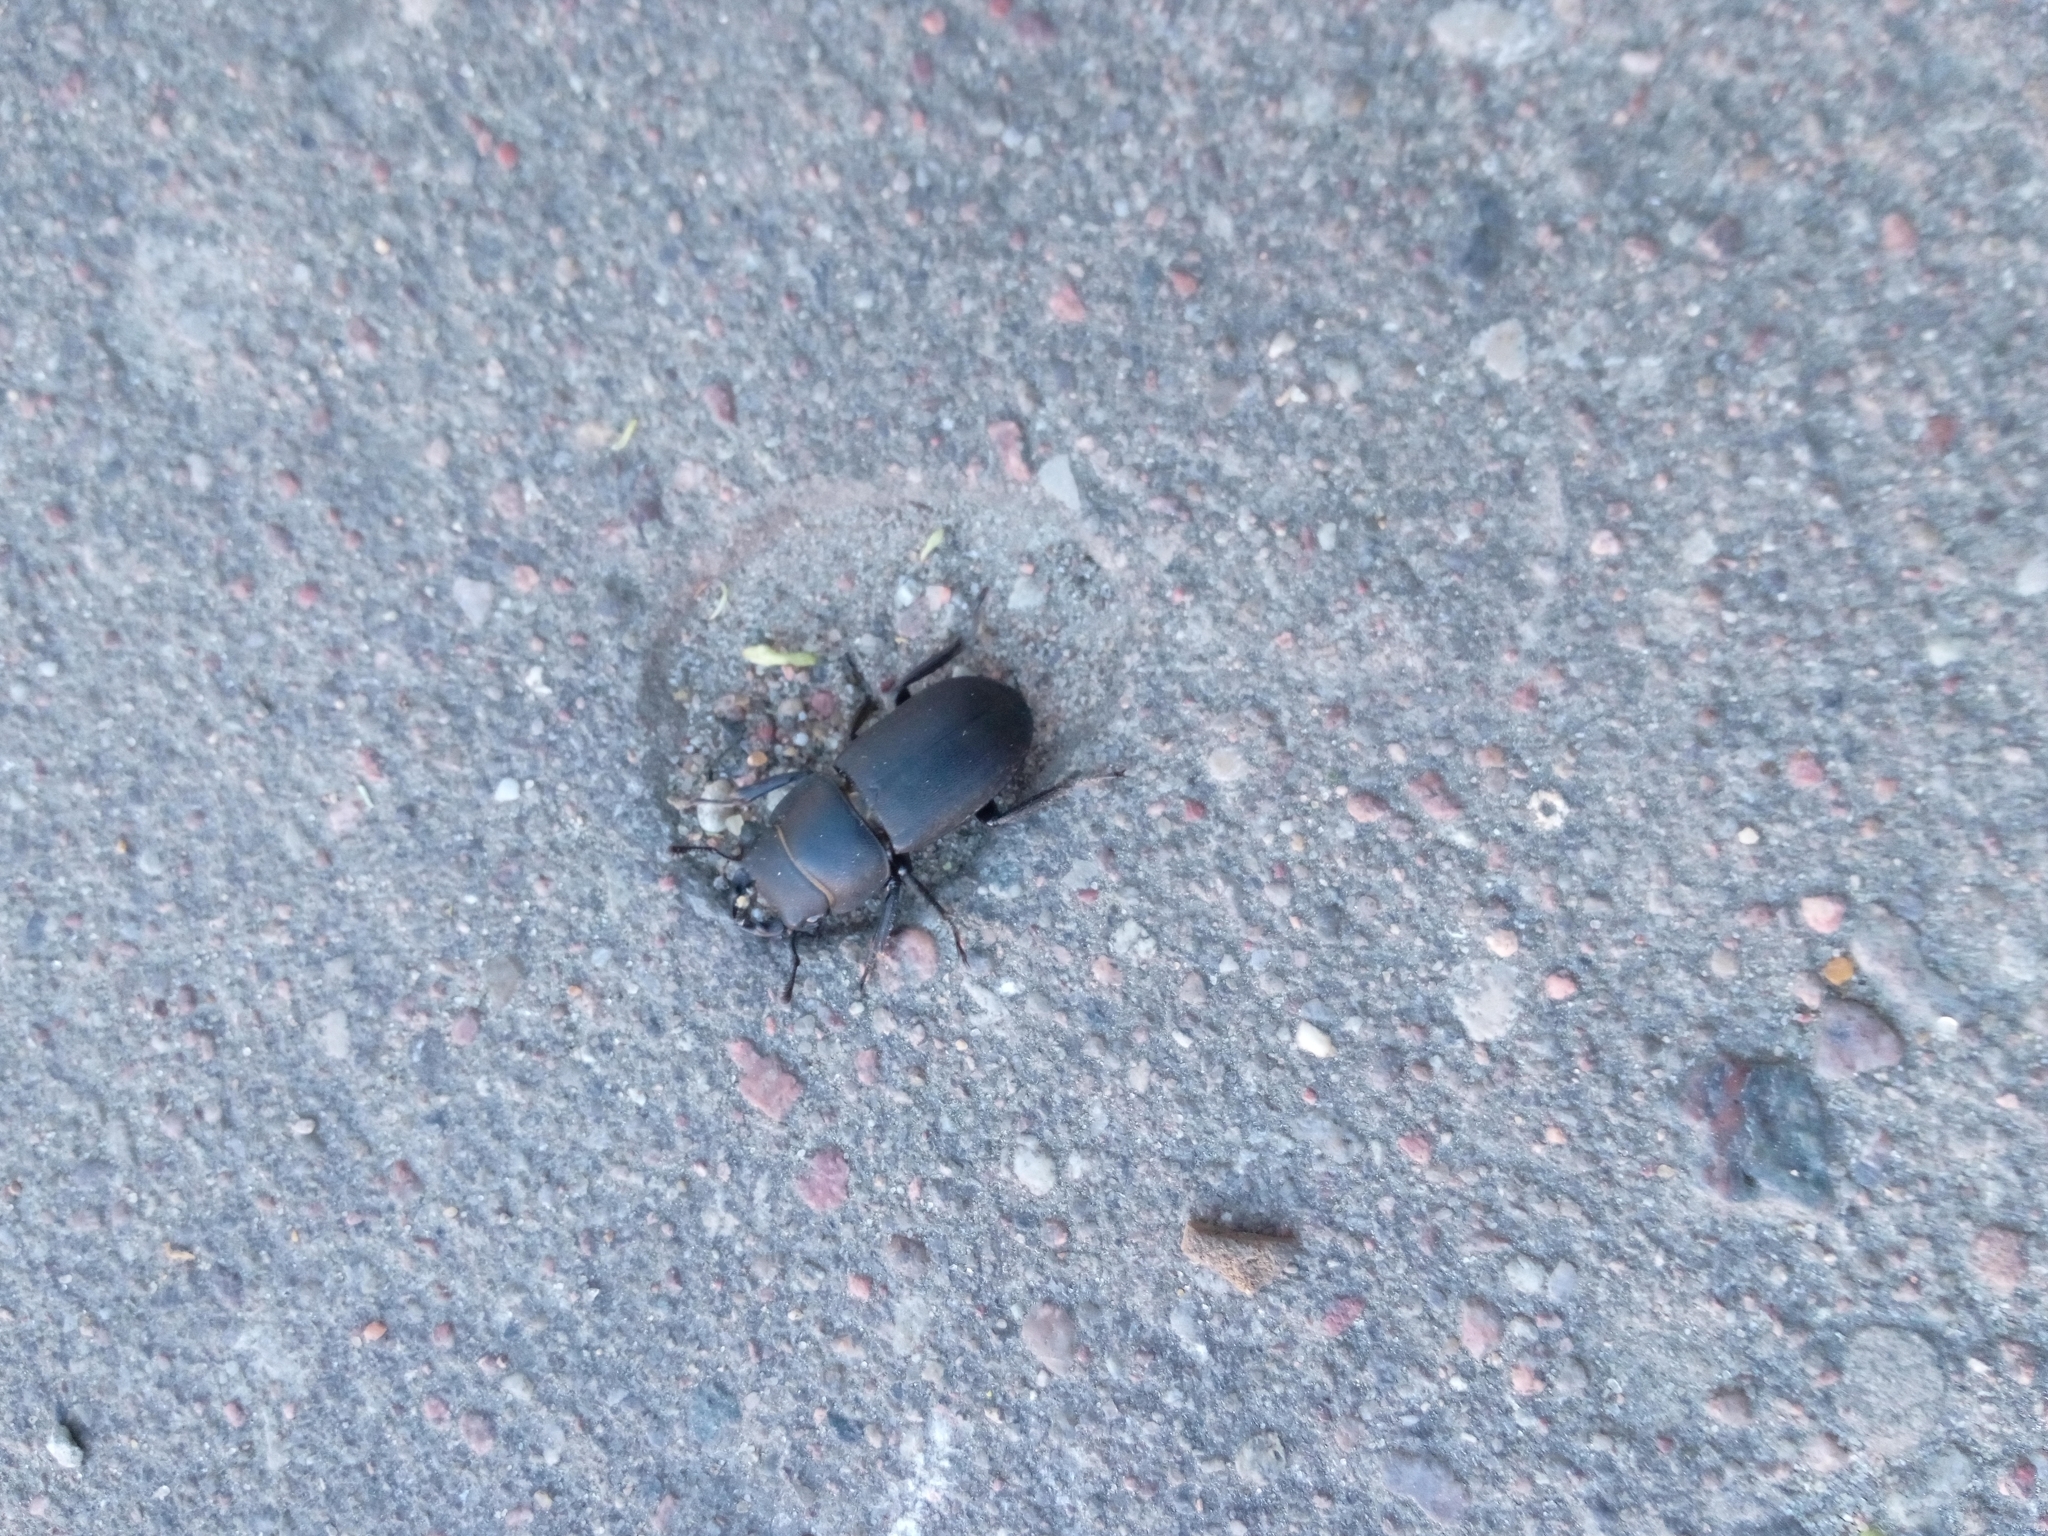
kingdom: Animalia
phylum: Arthropoda
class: Insecta
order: Coleoptera
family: Lucanidae
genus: Dorcus
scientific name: Dorcus parallelipipedus
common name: Lesser stag beetle
